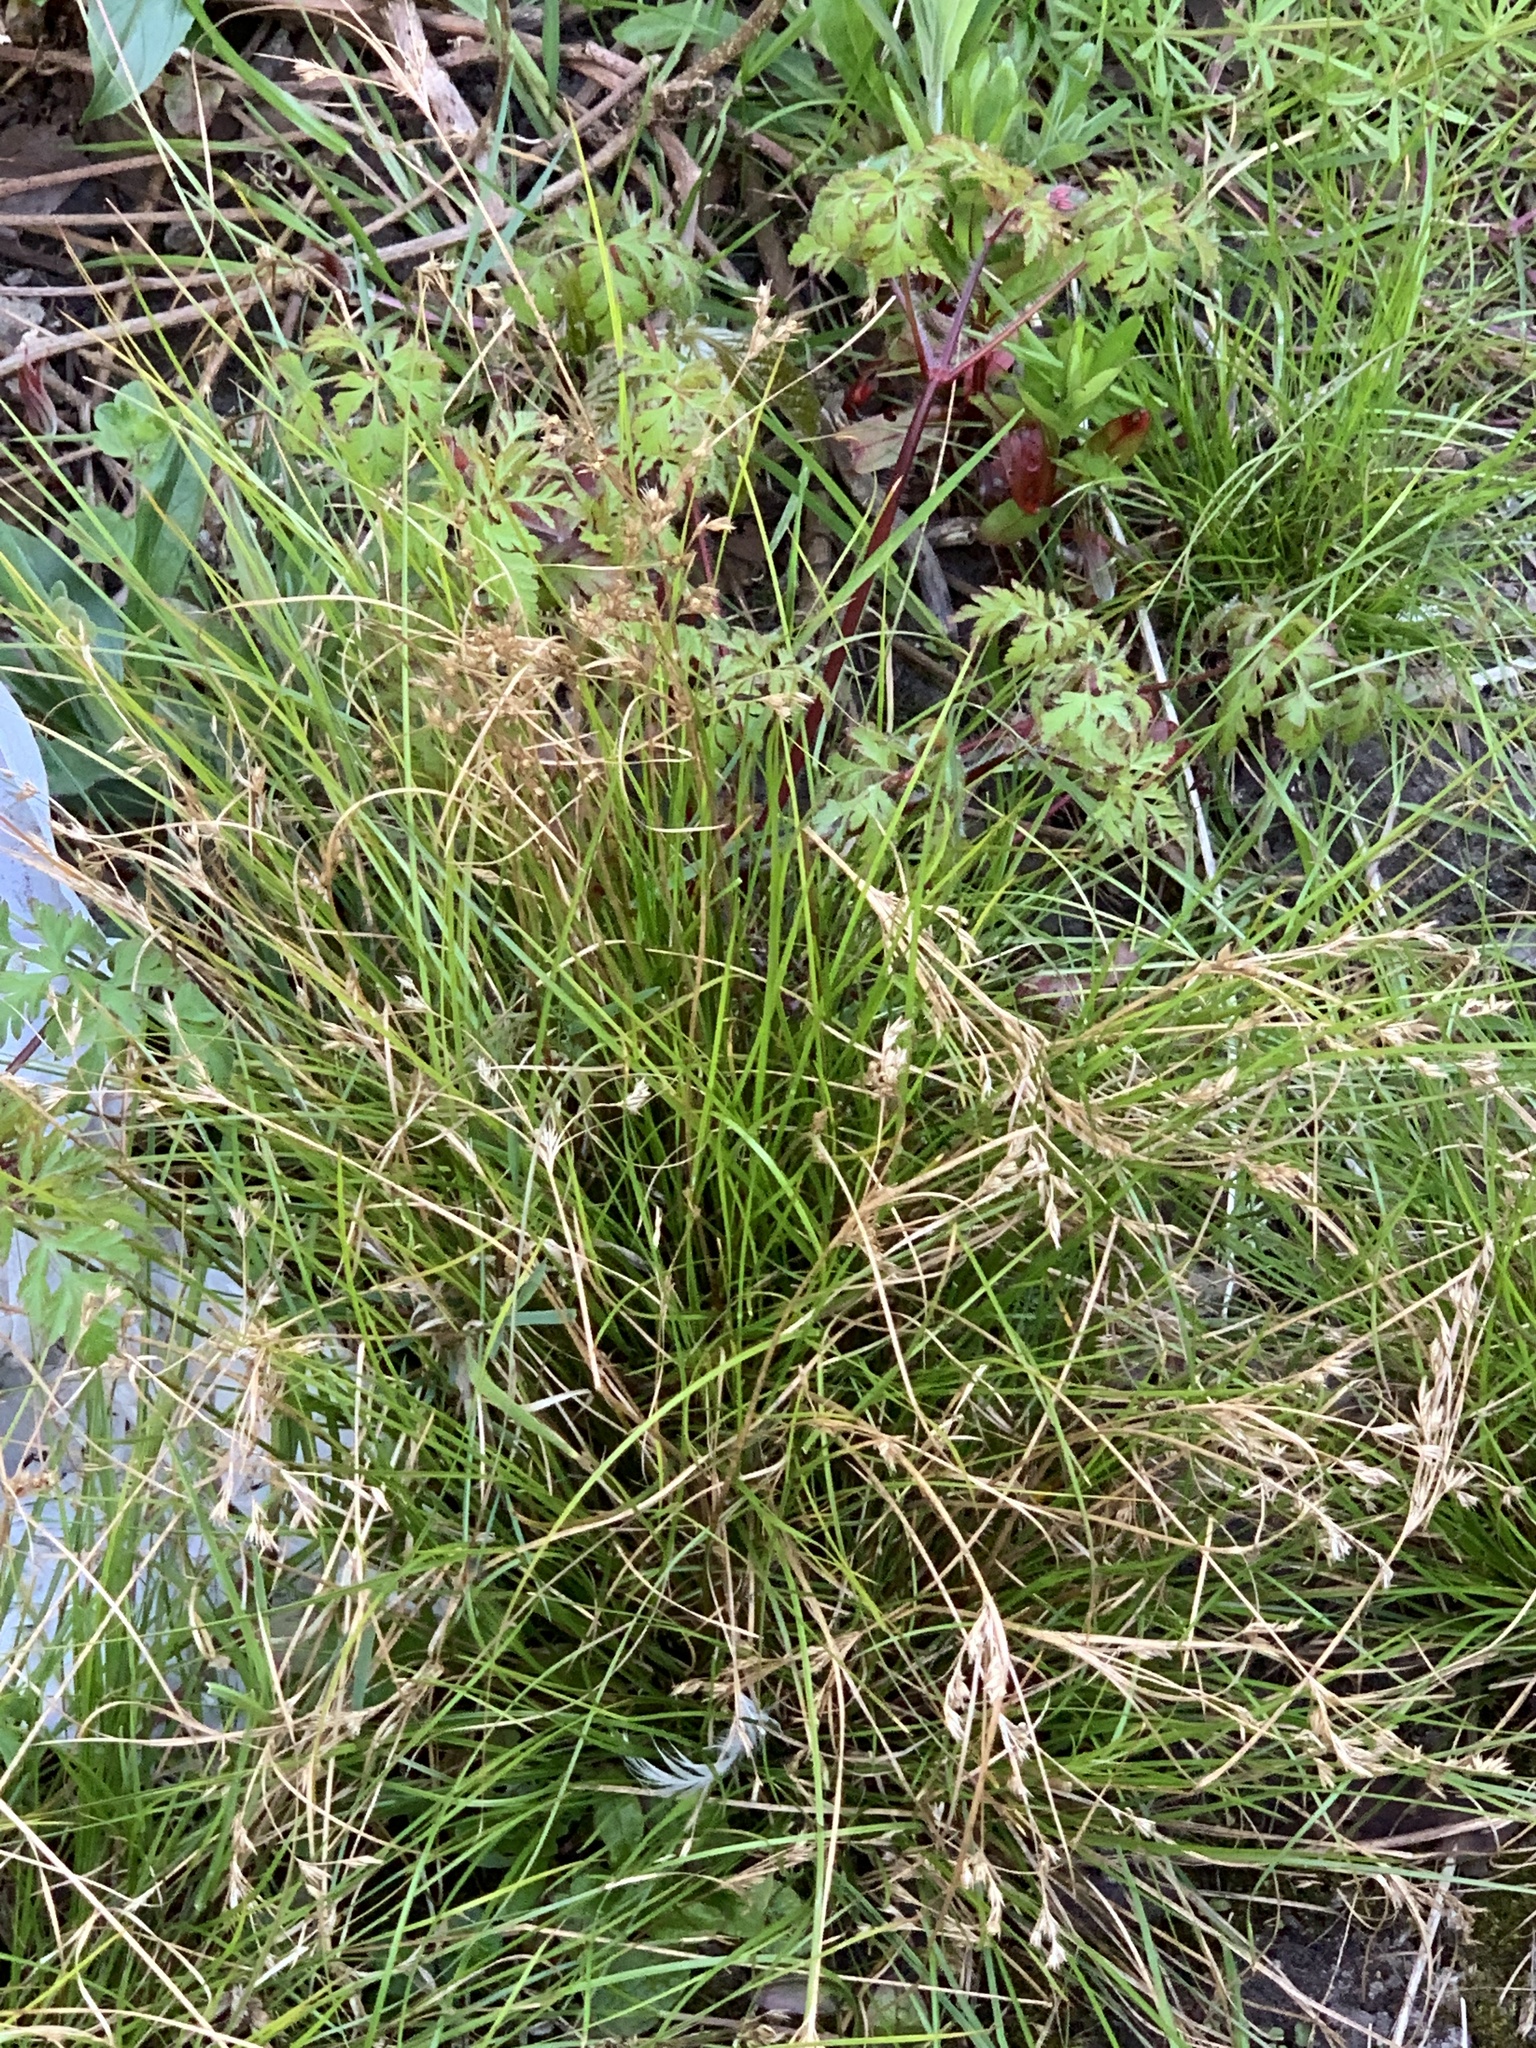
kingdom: Plantae
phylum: Tracheophyta
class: Liliopsida
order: Poales
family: Juncaceae
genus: Juncus
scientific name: Juncus tenuis
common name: Slender rush
